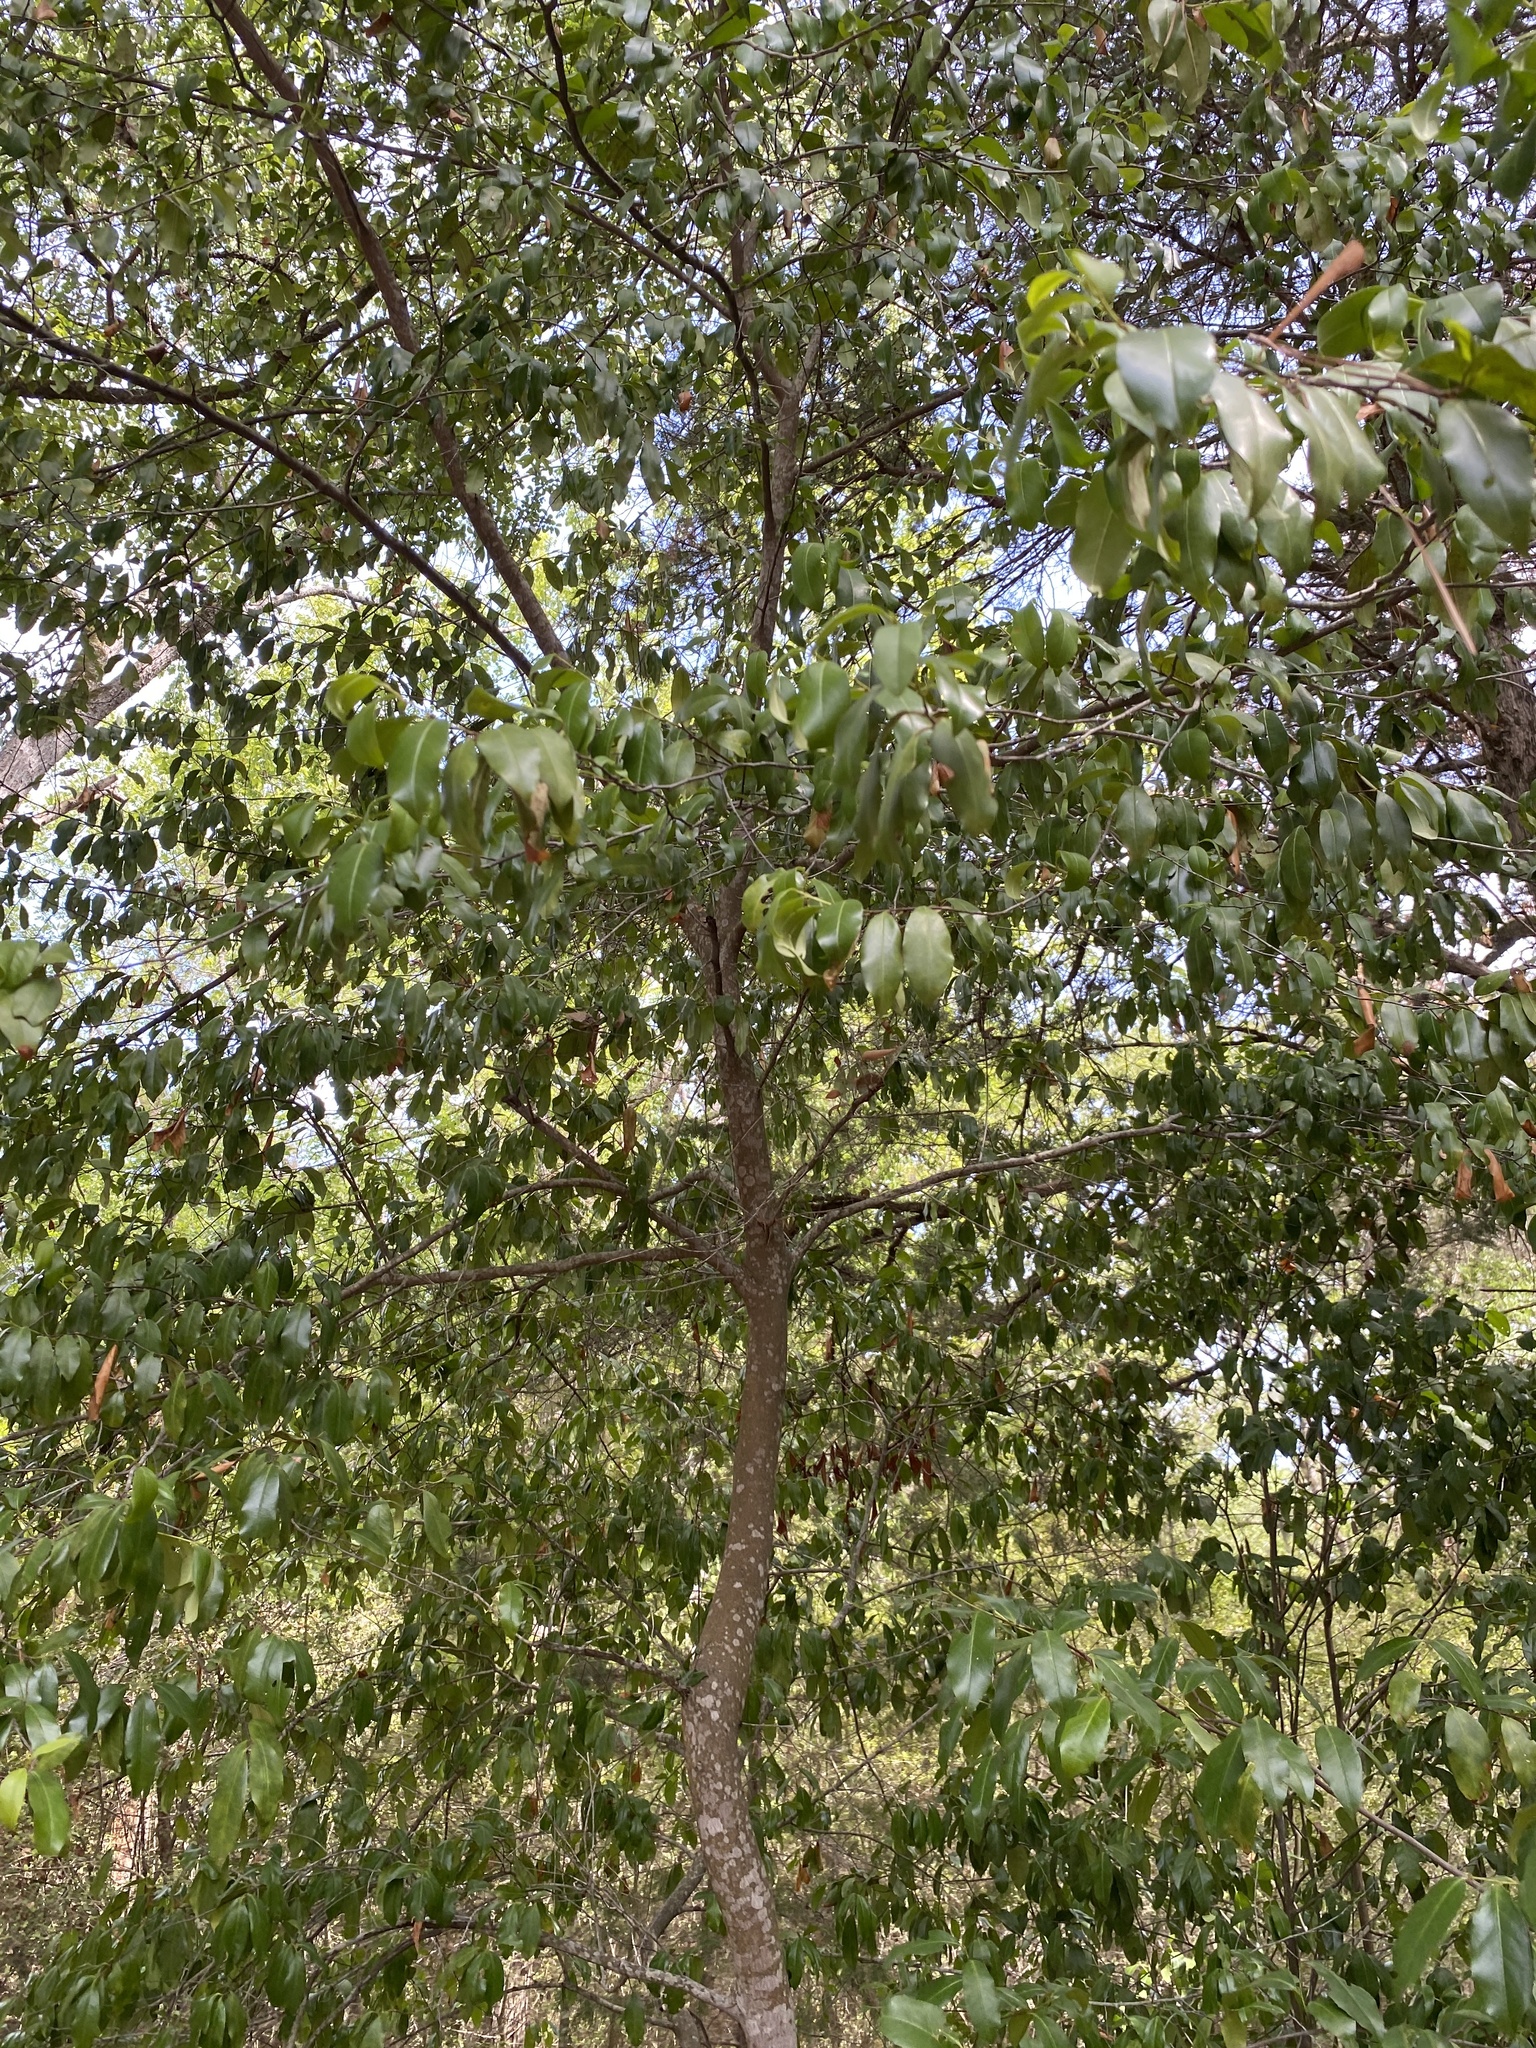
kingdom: Plantae
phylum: Tracheophyta
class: Magnoliopsida
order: Rosales
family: Rosaceae
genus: Prunus
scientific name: Prunus caroliniana
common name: Carolina laurel cherry
